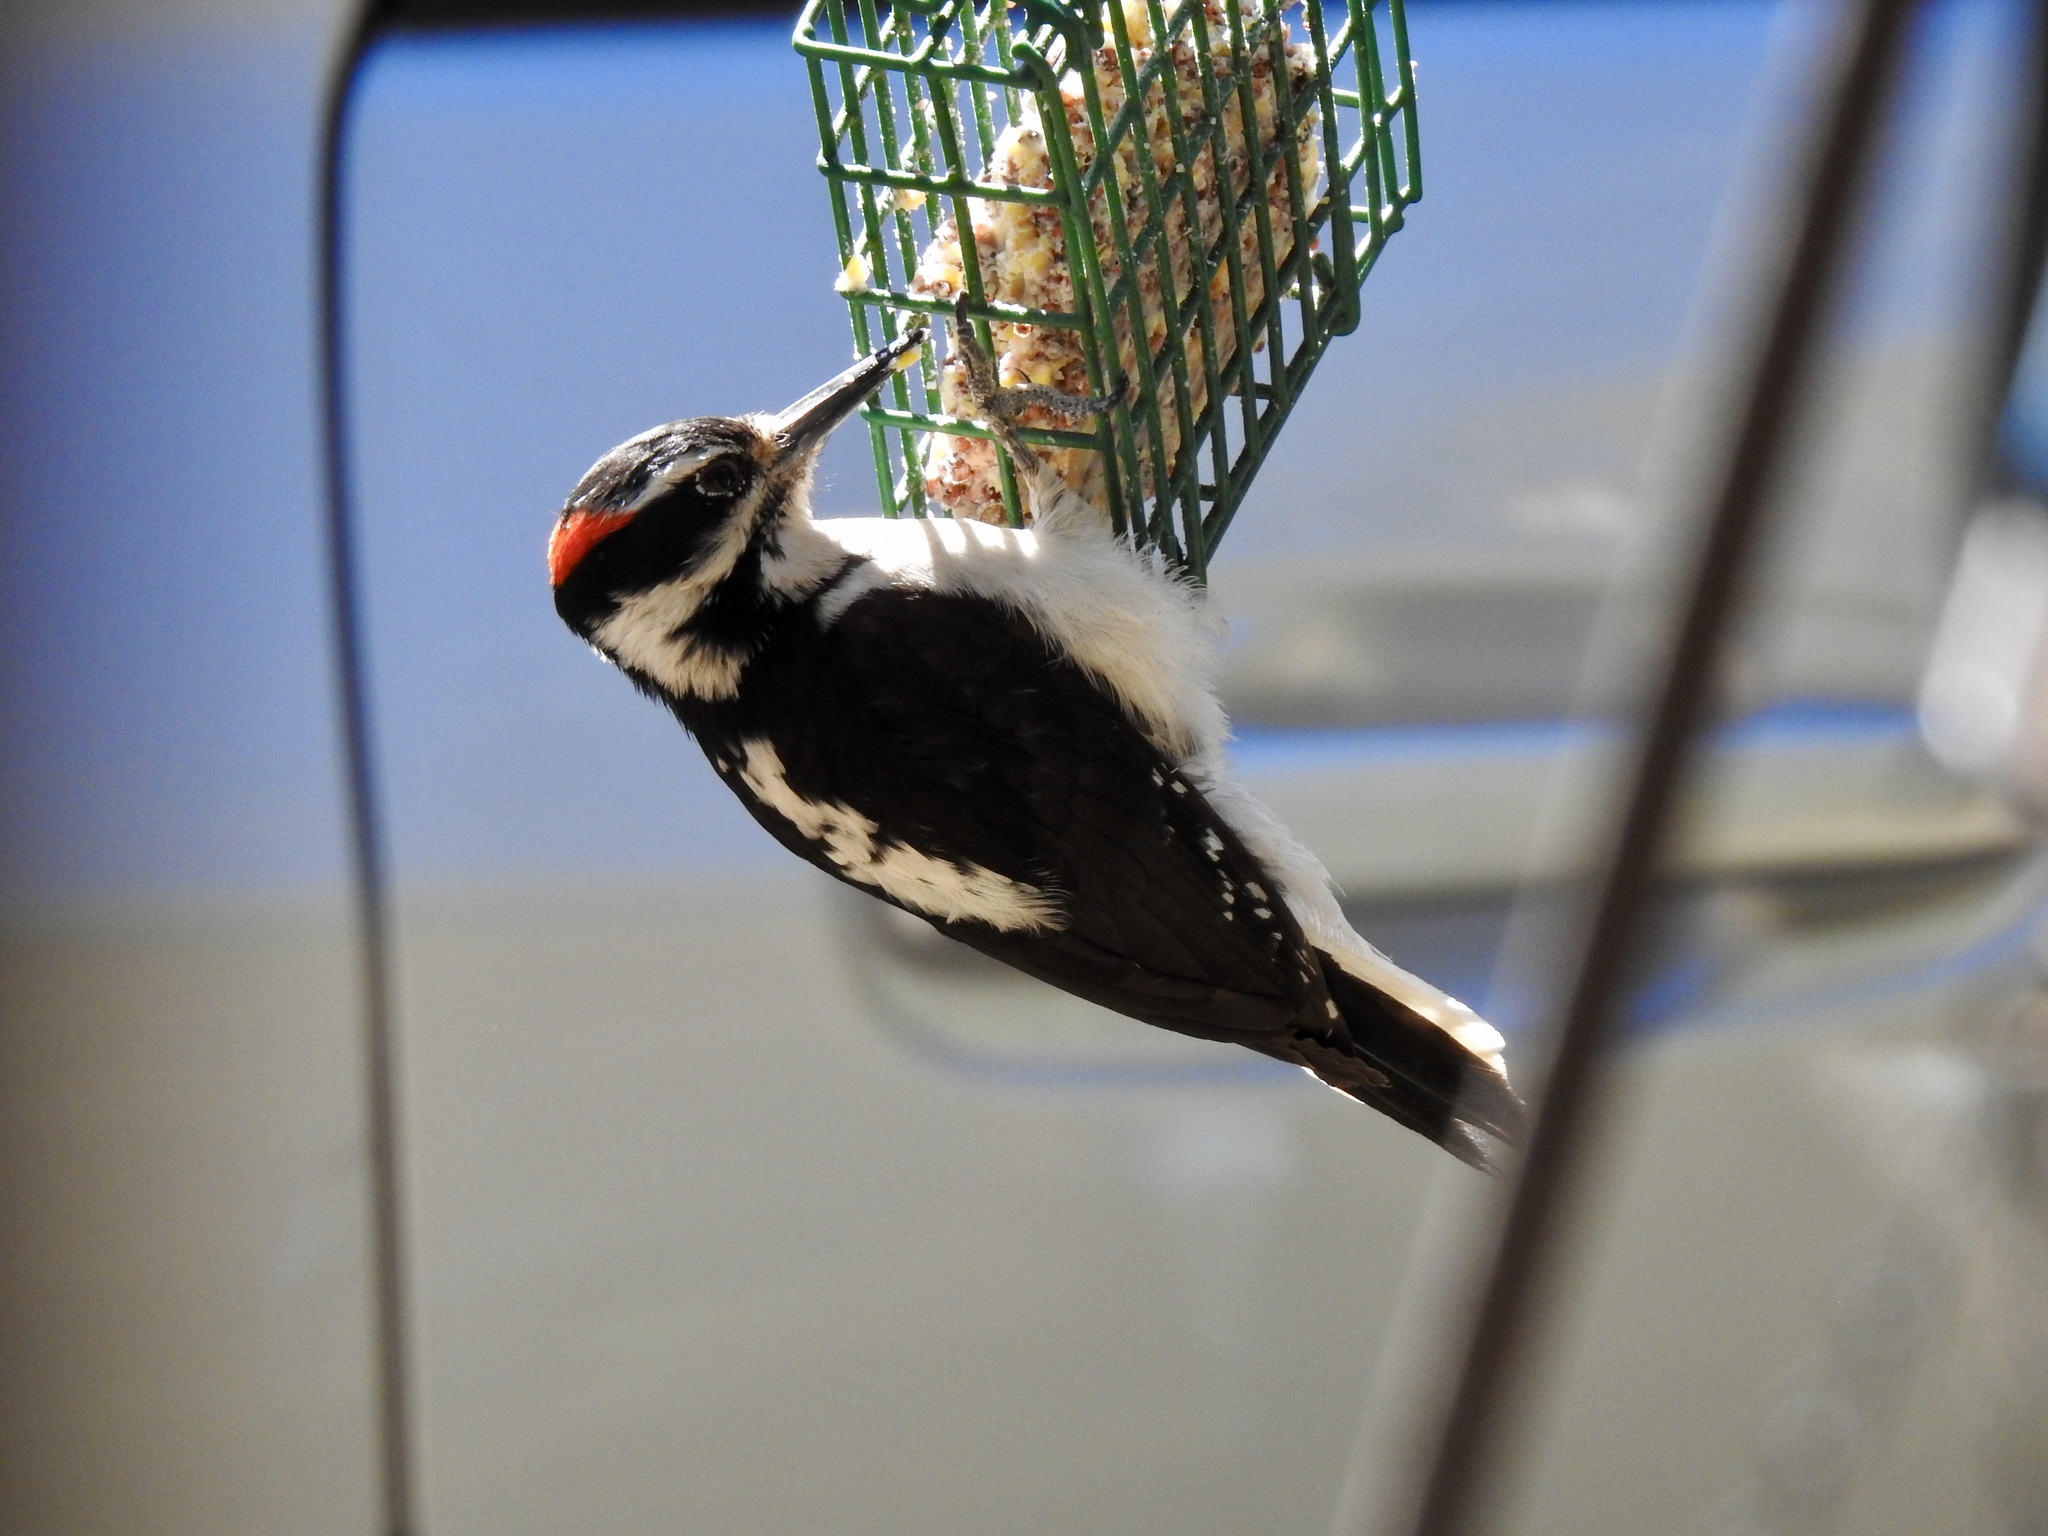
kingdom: Animalia
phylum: Chordata
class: Aves
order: Piciformes
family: Picidae
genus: Leuconotopicus
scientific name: Leuconotopicus villosus
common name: Hairy woodpecker
